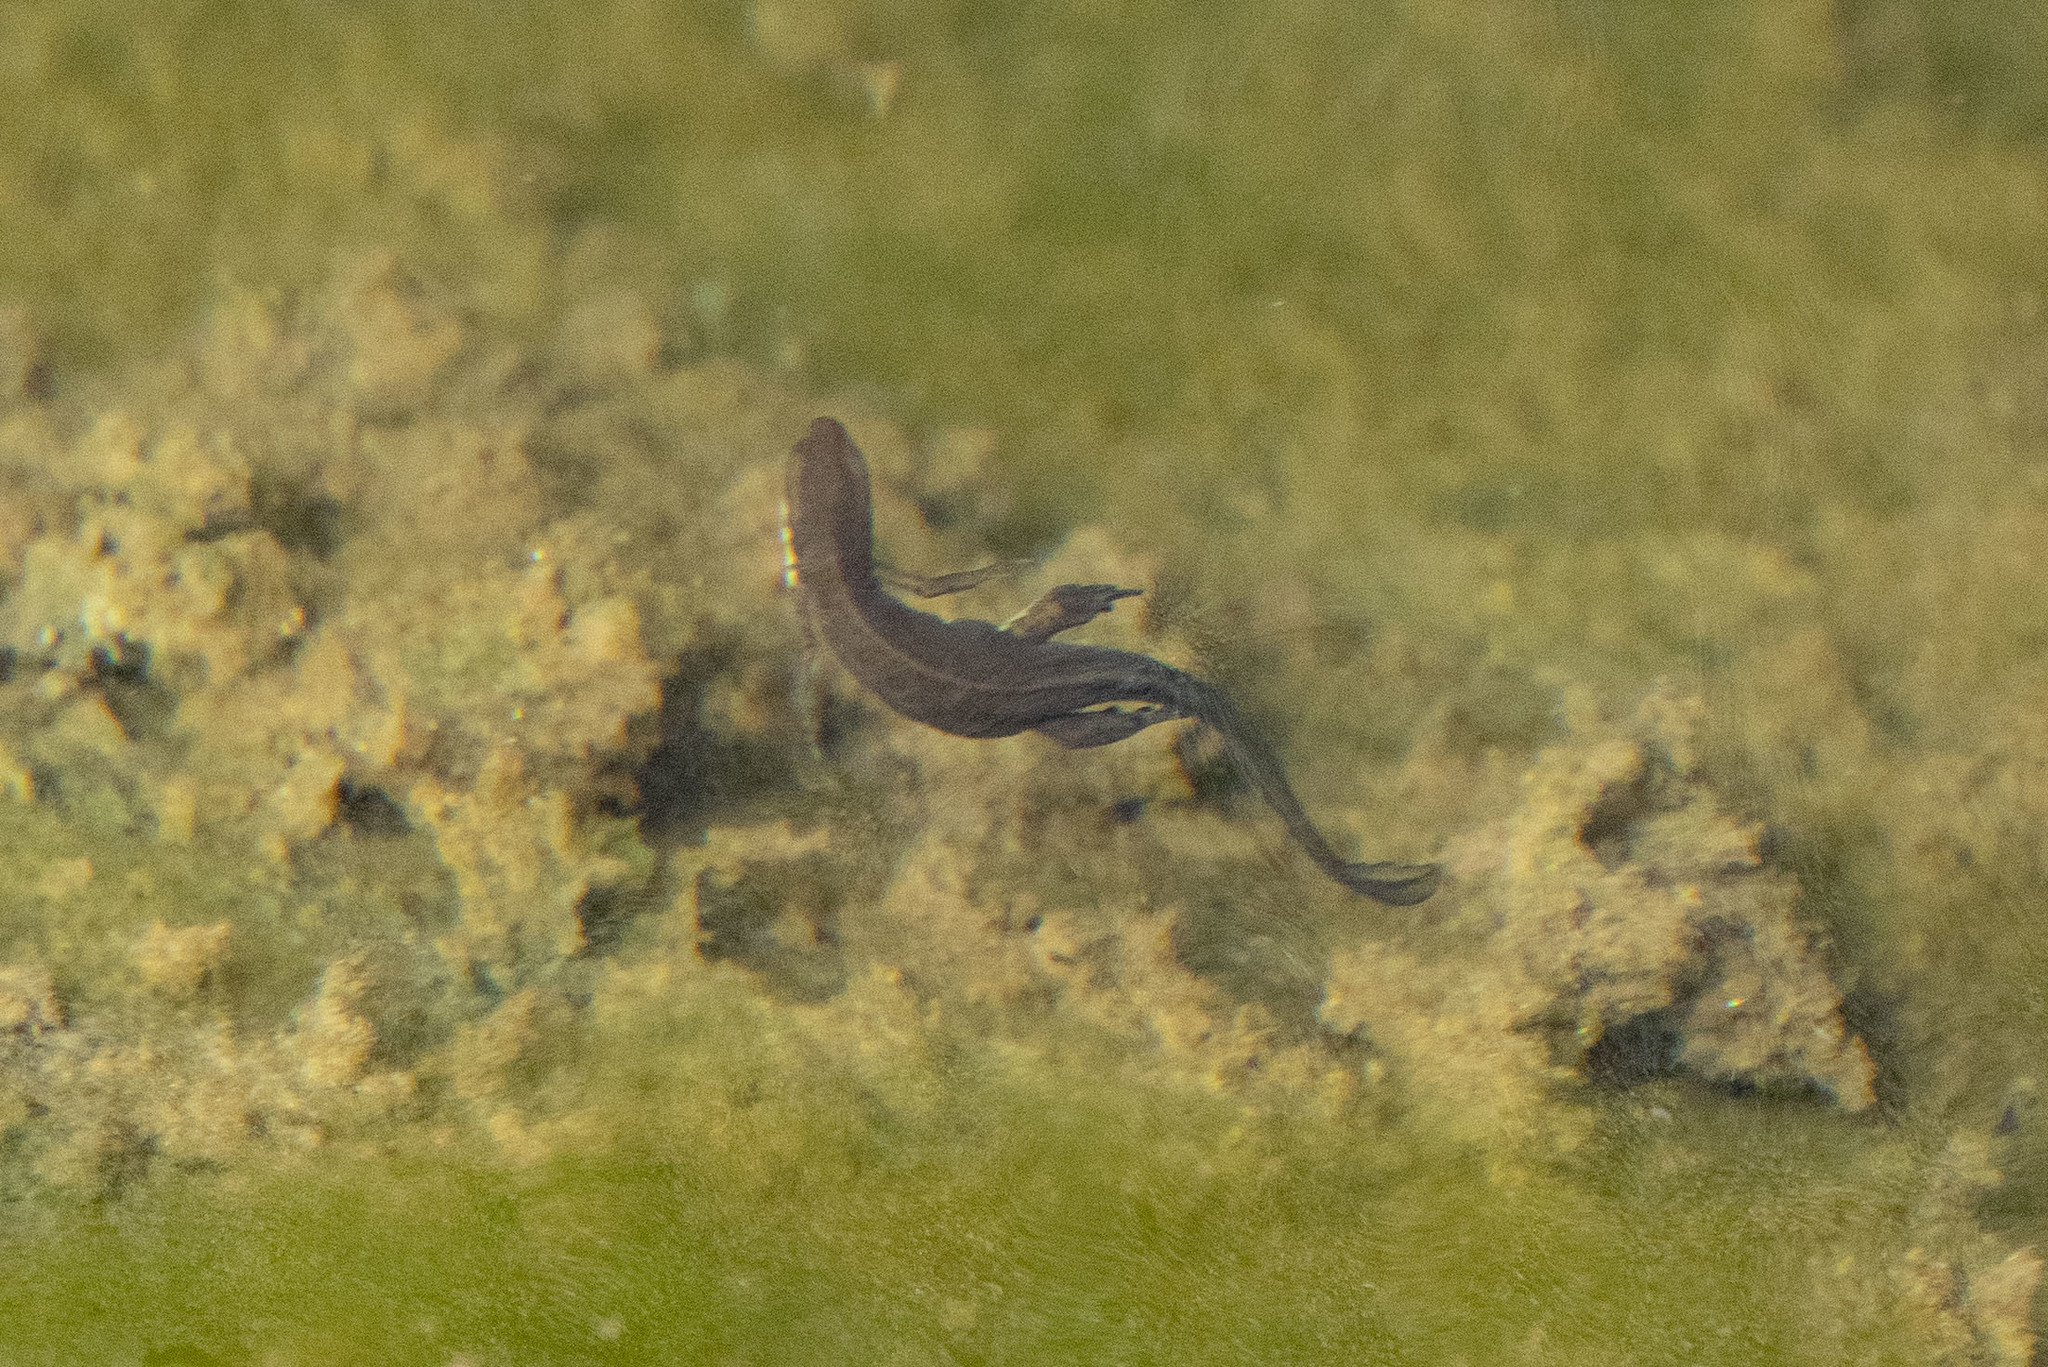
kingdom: Animalia
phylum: Chordata
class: Amphibia
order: Caudata
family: Salamandridae
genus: Notophthalmus
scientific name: Notophthalmus viridescens
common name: Eastern newt
